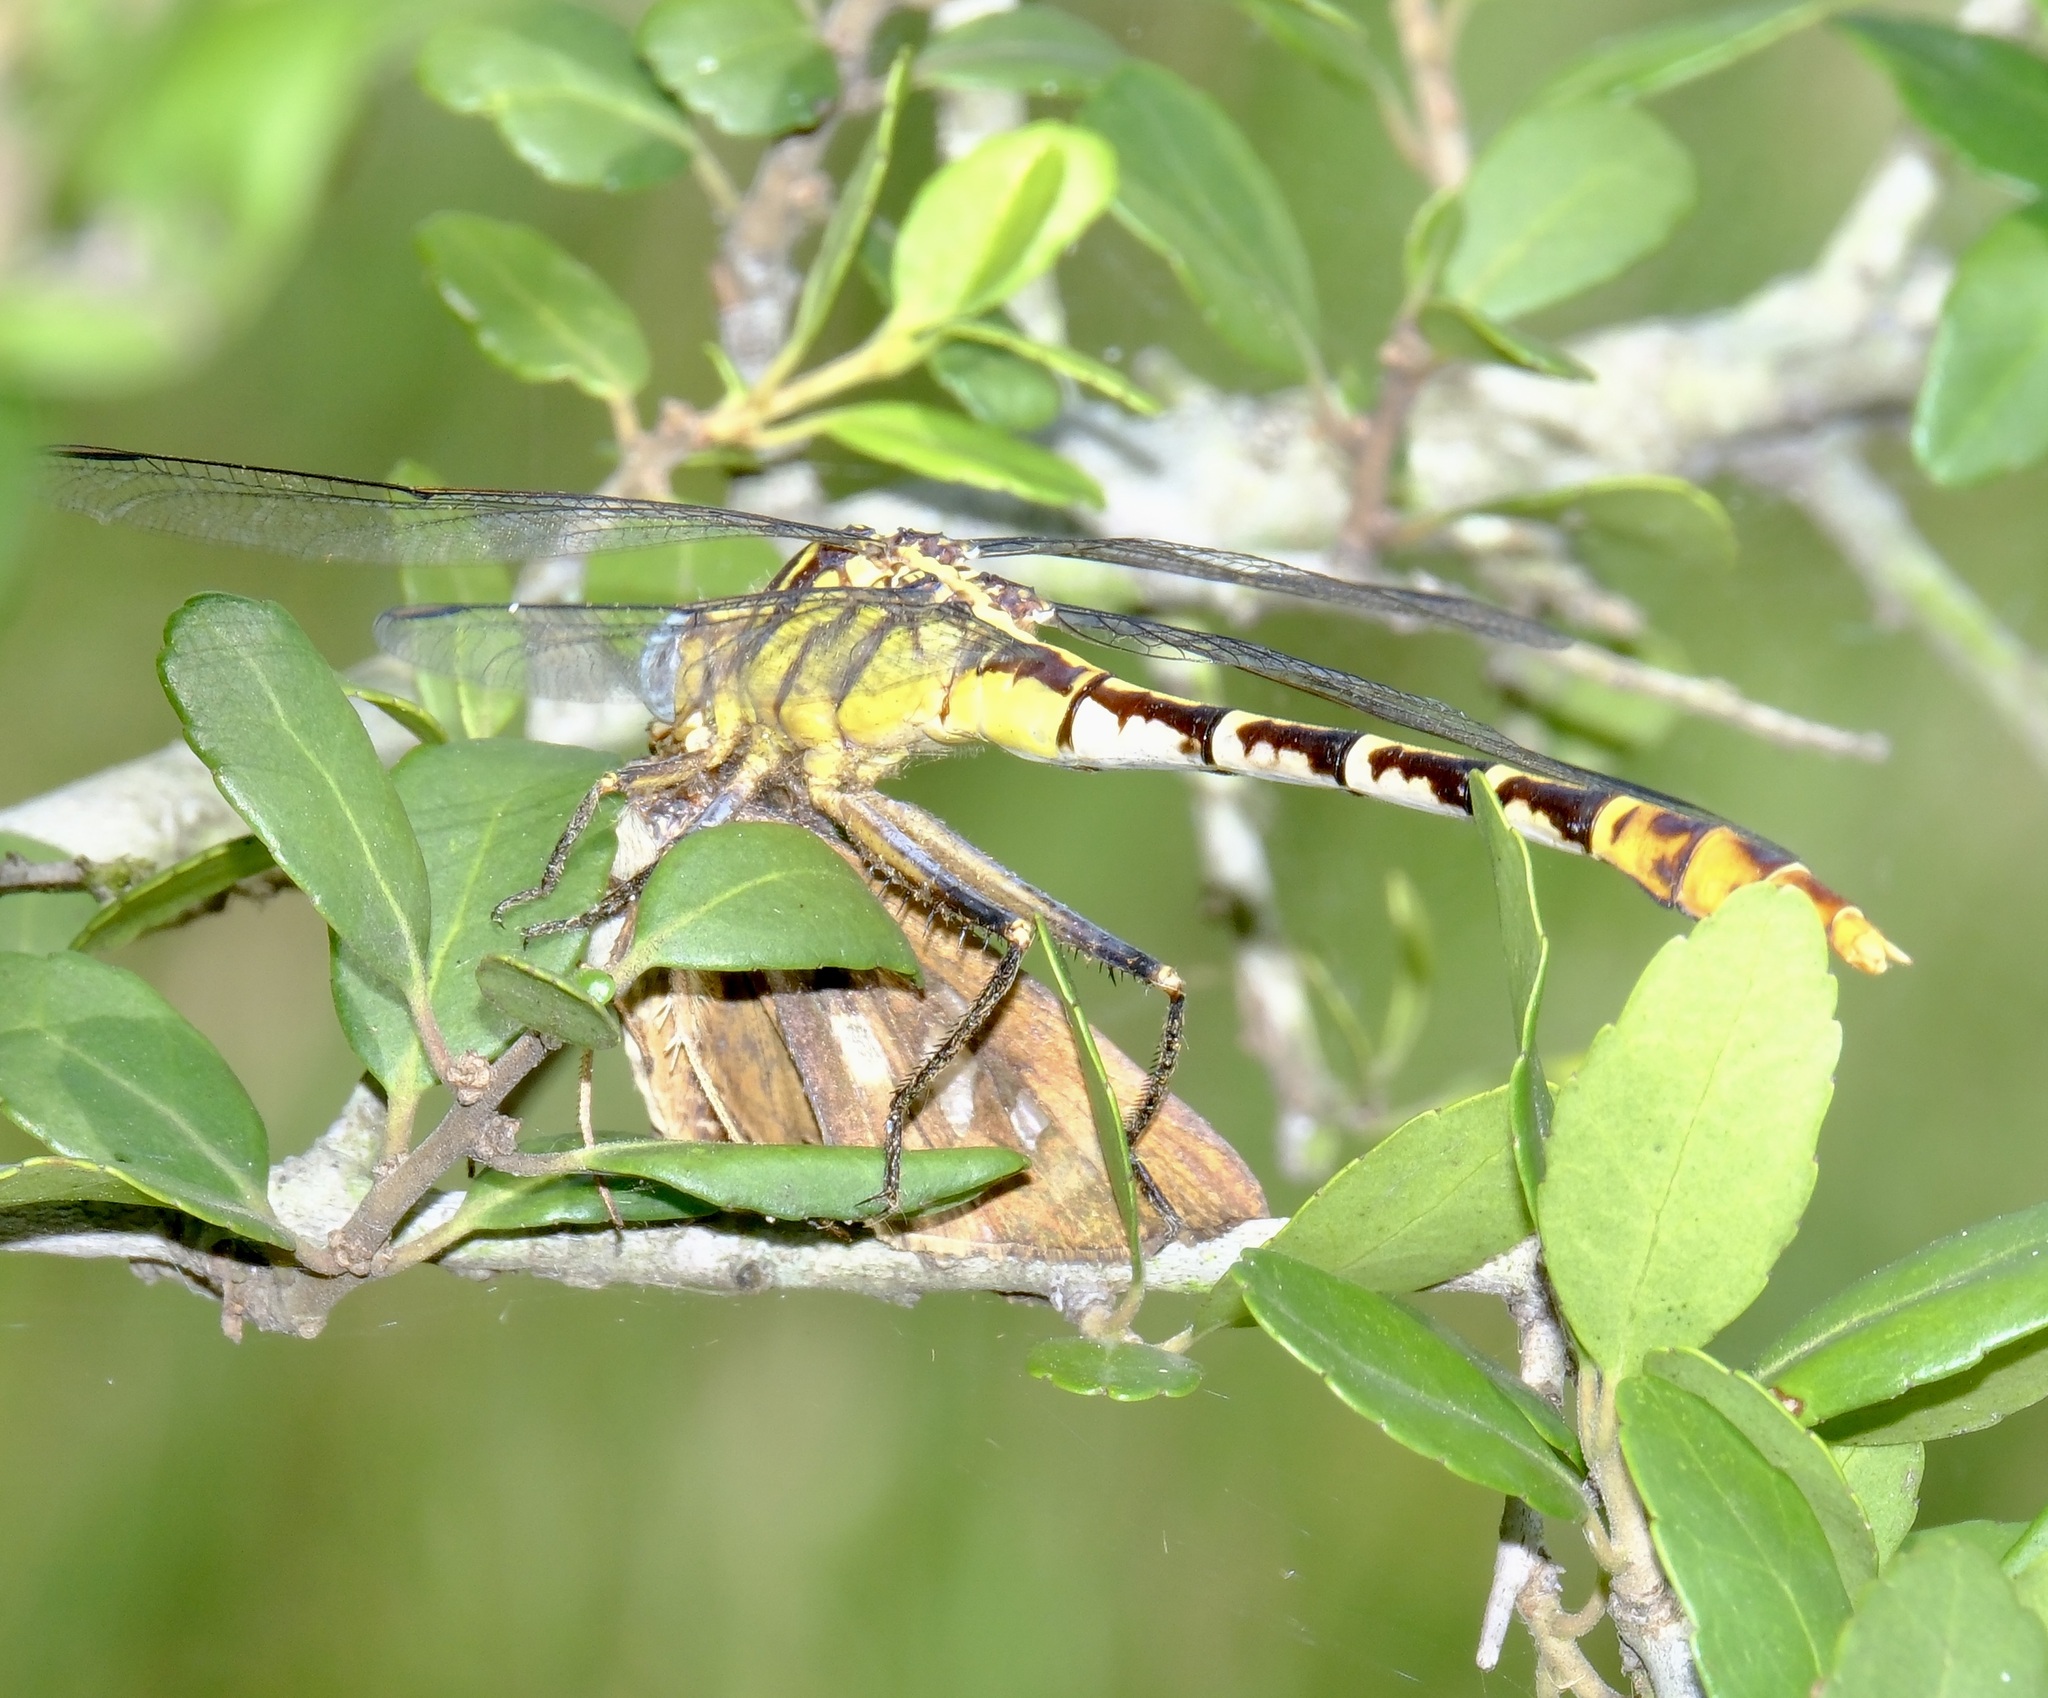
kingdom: Animalia
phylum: Arthropoda
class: Insecta
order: Odonata
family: Gomphidae
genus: Dromogomphus
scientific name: Dromogomphus spoliatus
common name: Flag-tailed spinyleg
